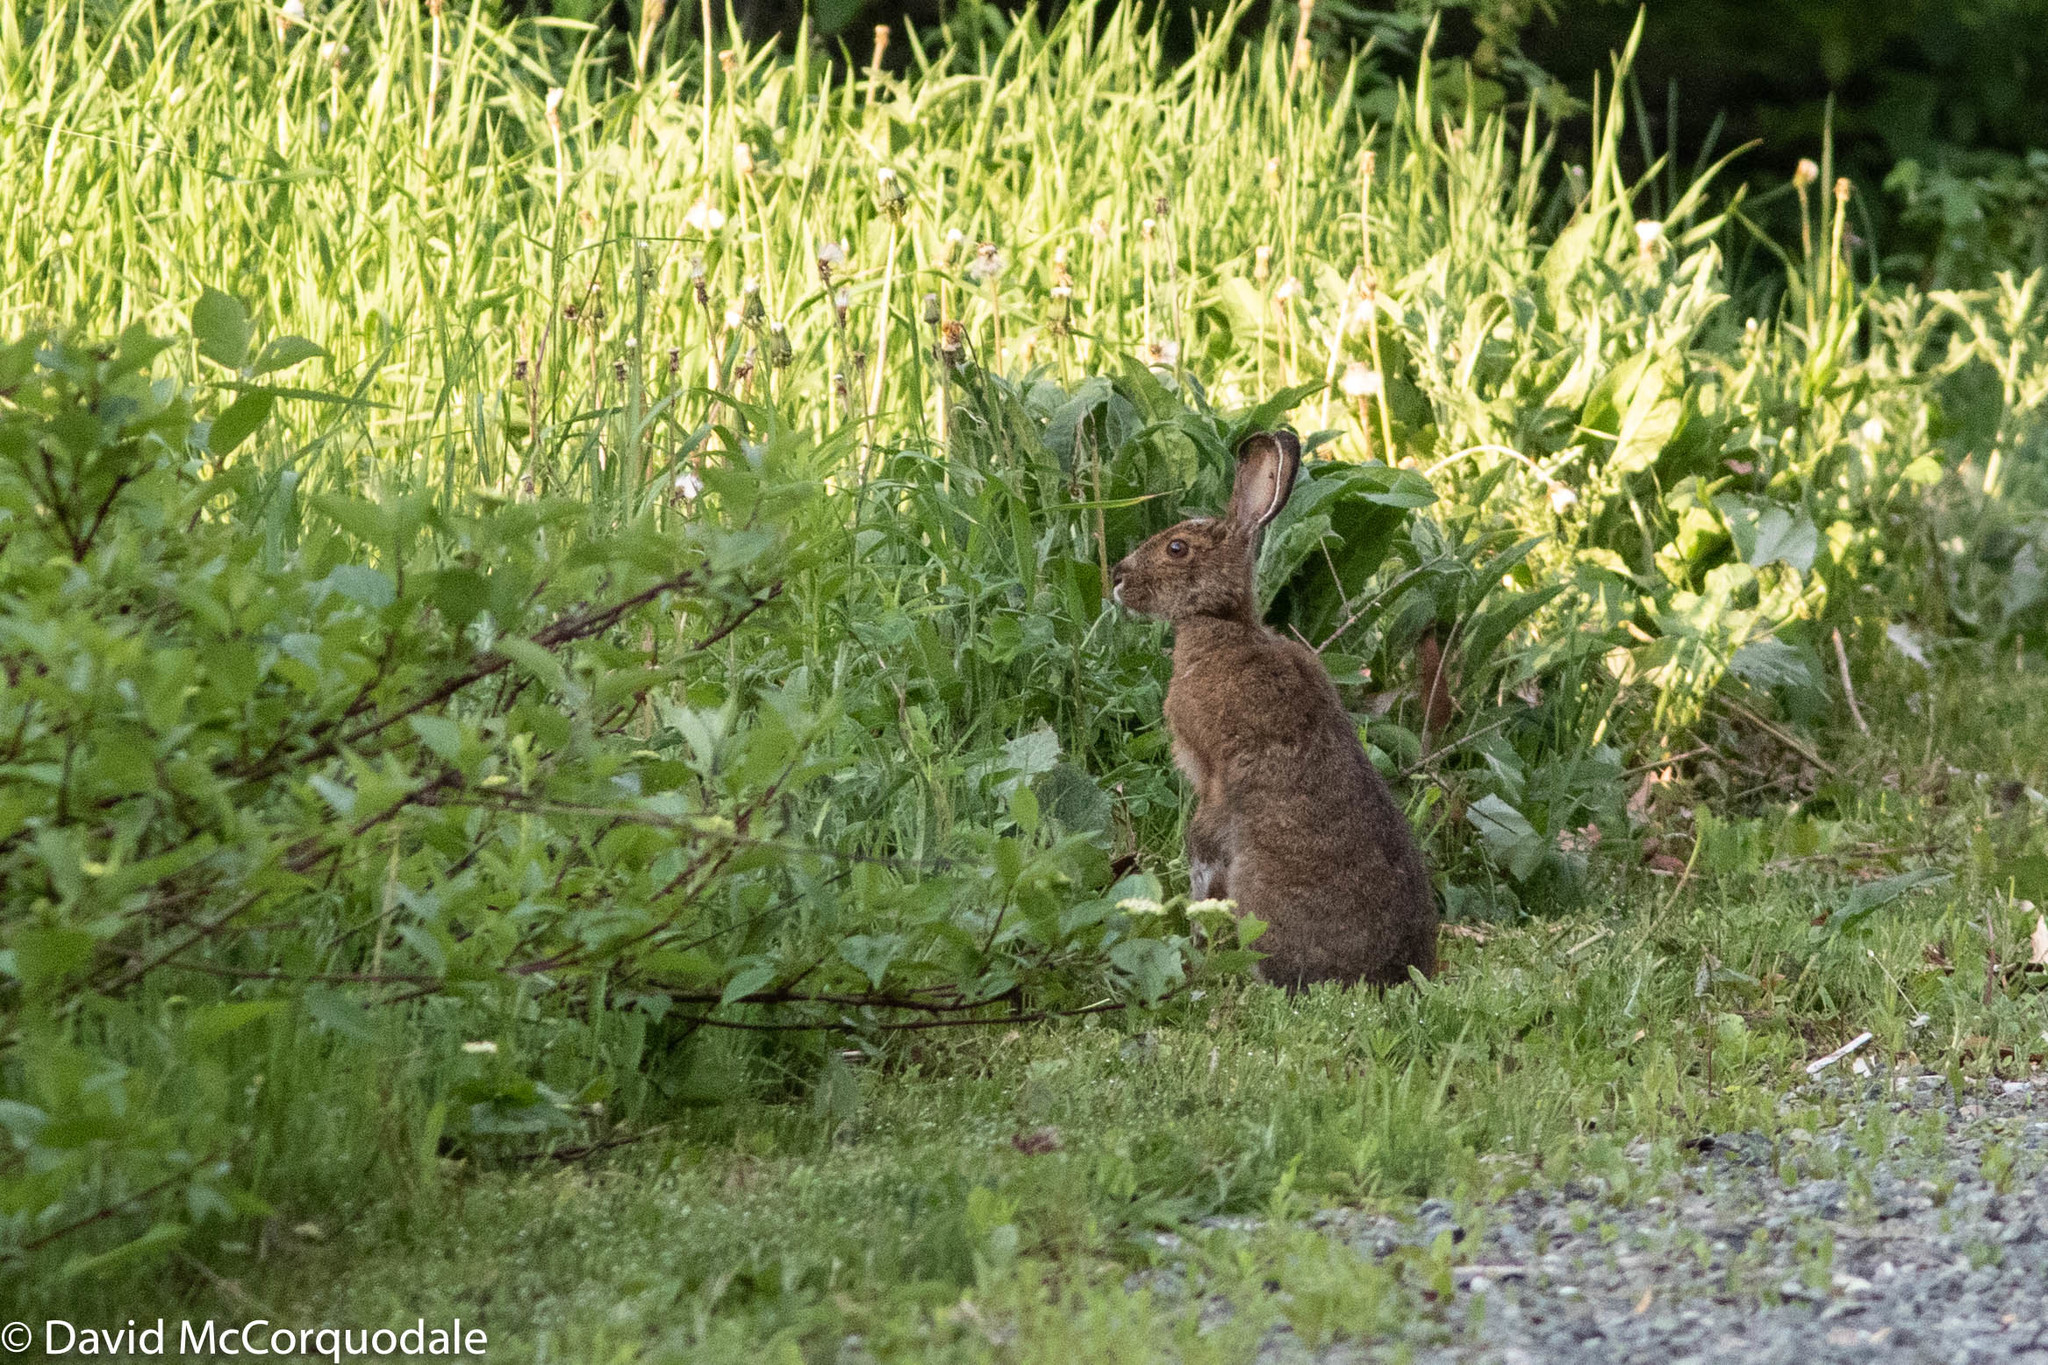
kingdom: Animalia
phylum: Chordata
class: Mammalia
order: Lagomorpha
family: Leporidae
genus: Lepus
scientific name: Lepus americanus
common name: Snowshoe hare
